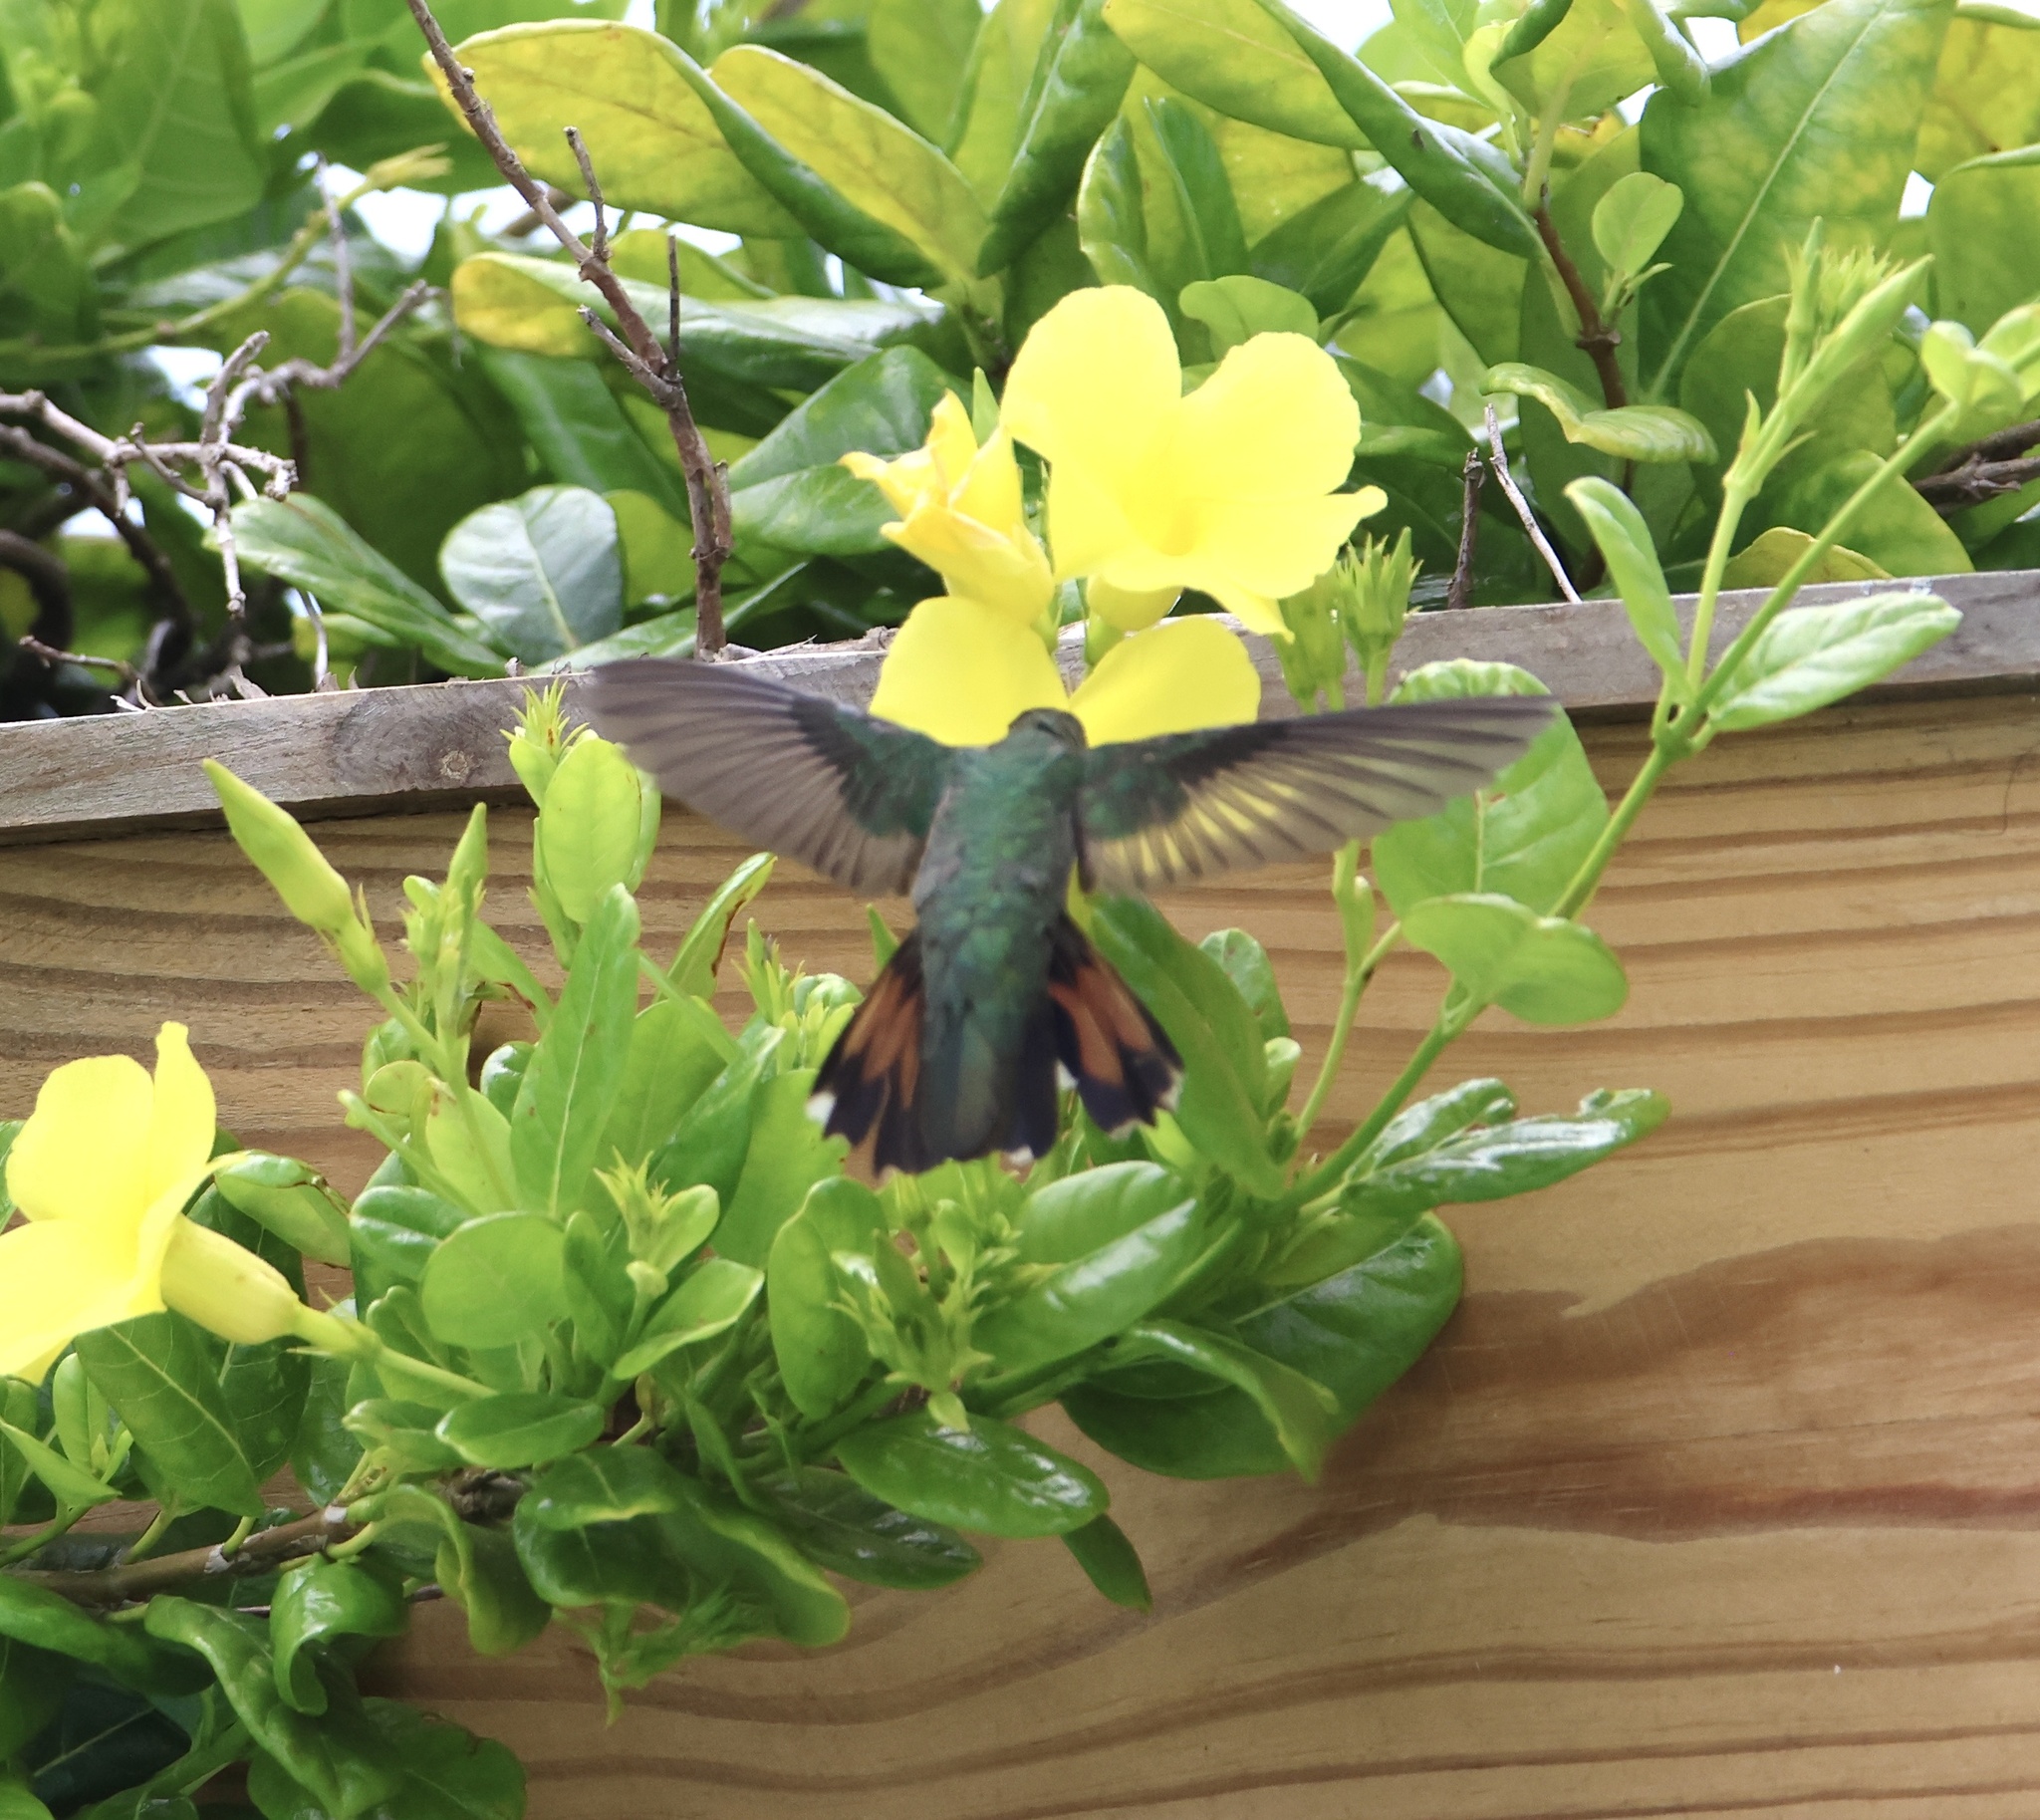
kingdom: Animalia
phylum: Chordata
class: Aves
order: Apodiformes
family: Trochilidae
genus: Anthracothorax
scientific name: Anthracothorax dominicus
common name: Antillean mango
